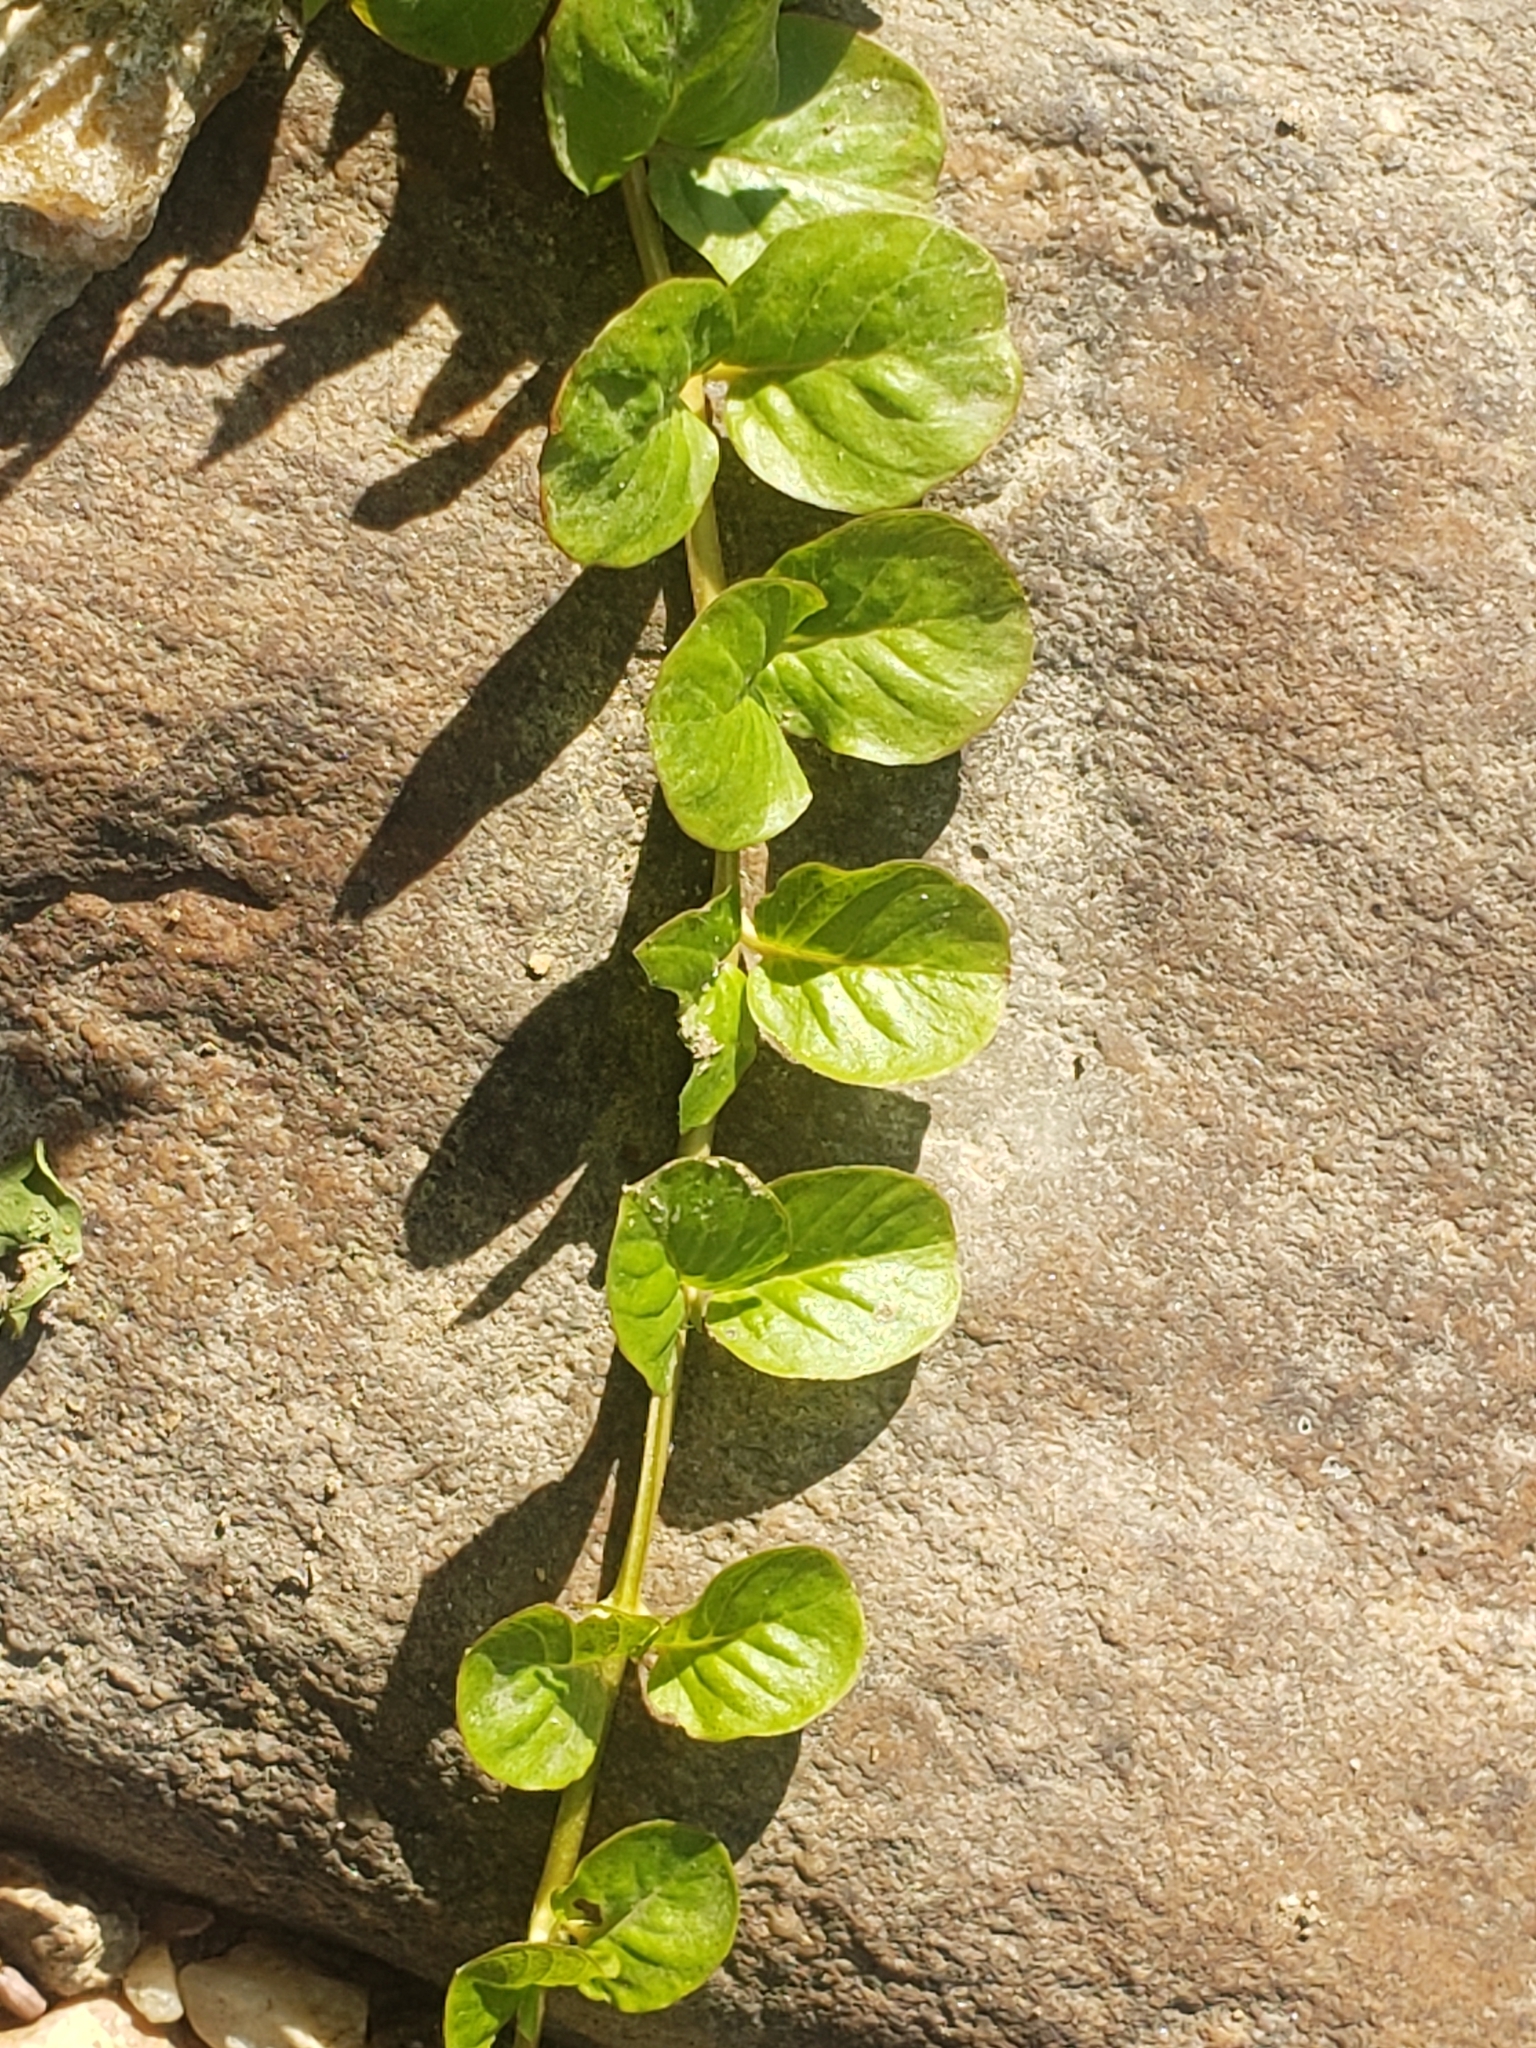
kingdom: Plantae
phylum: Tracheophyta
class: Magnoliopsida
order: Ericales
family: Primulaceae
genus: Lysimachia
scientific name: Lysimachia nummularia
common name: Moneywort
